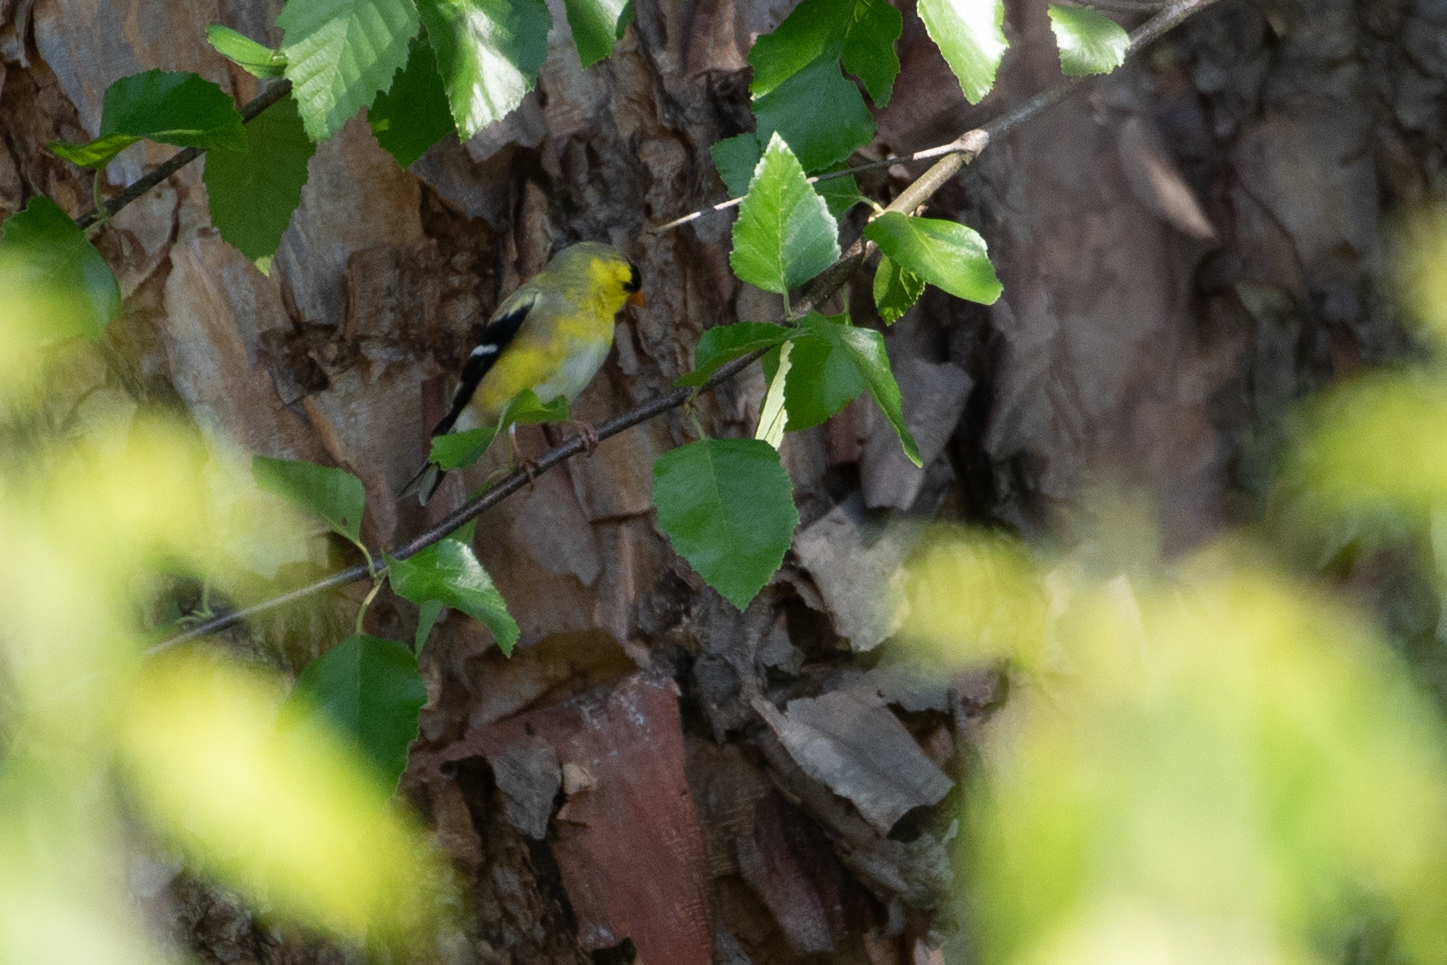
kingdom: Animalia
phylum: Chordata
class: Aves
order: Passeriformes
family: Fringillidae
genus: Spinus
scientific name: Spinus tristis
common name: American goldfinch
